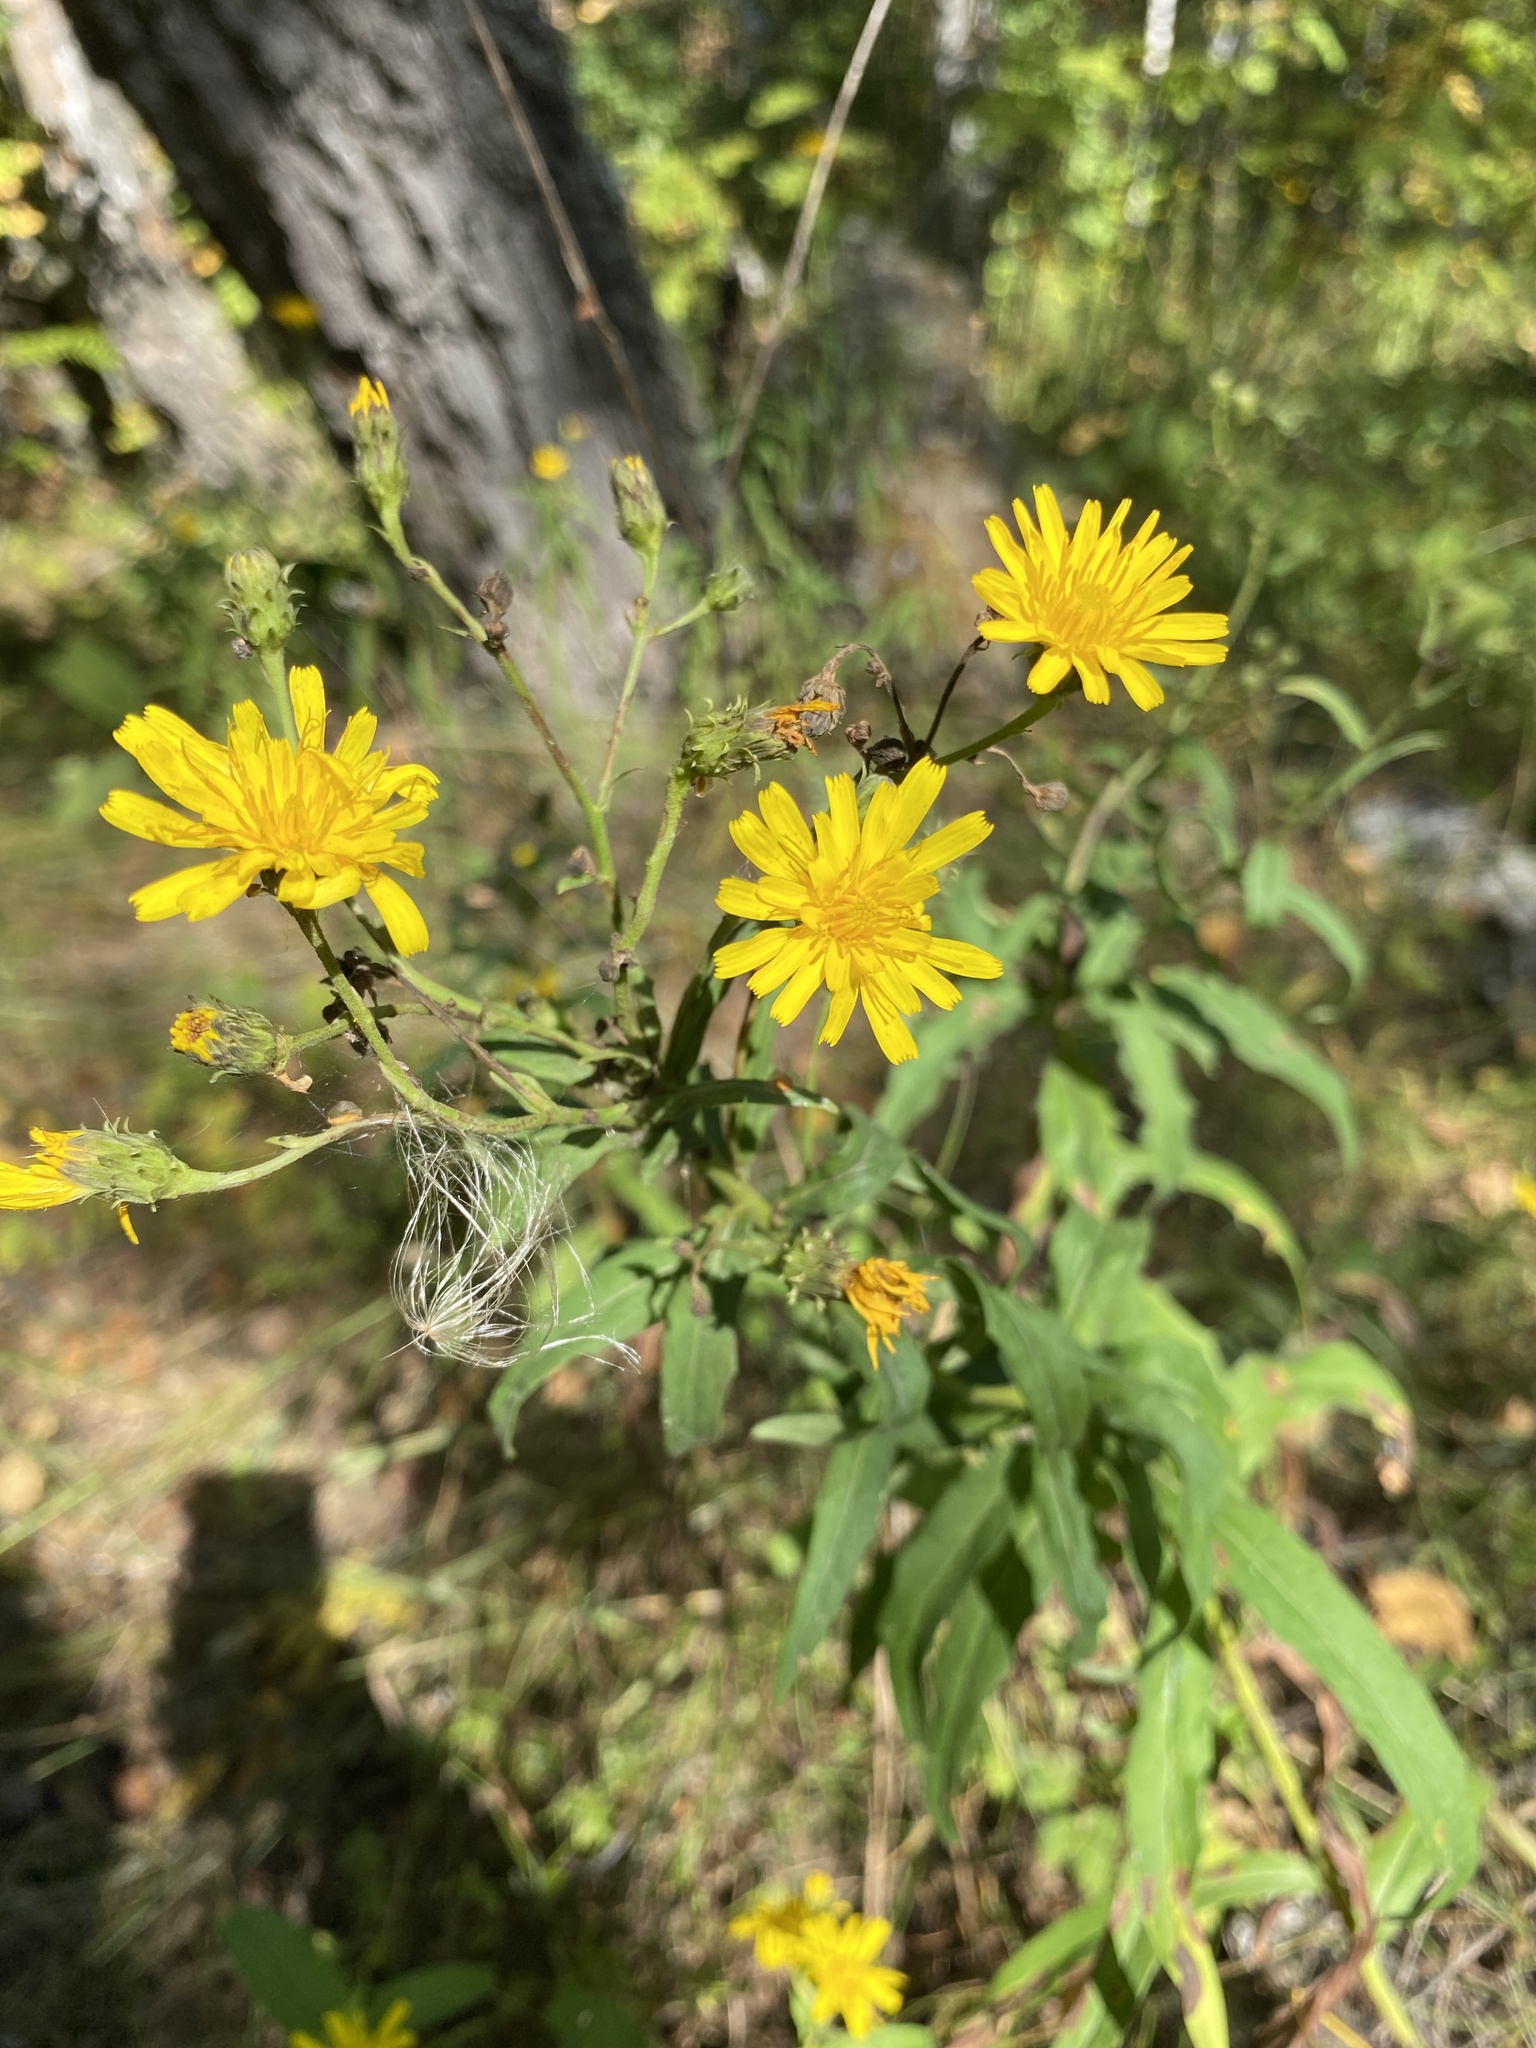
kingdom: Plantae
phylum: Tracheophyta
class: Magnoliopsida
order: Asterales
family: Asteraceae
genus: Hieracium
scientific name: Hieracium umbellatum
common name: Northern hawkweed
